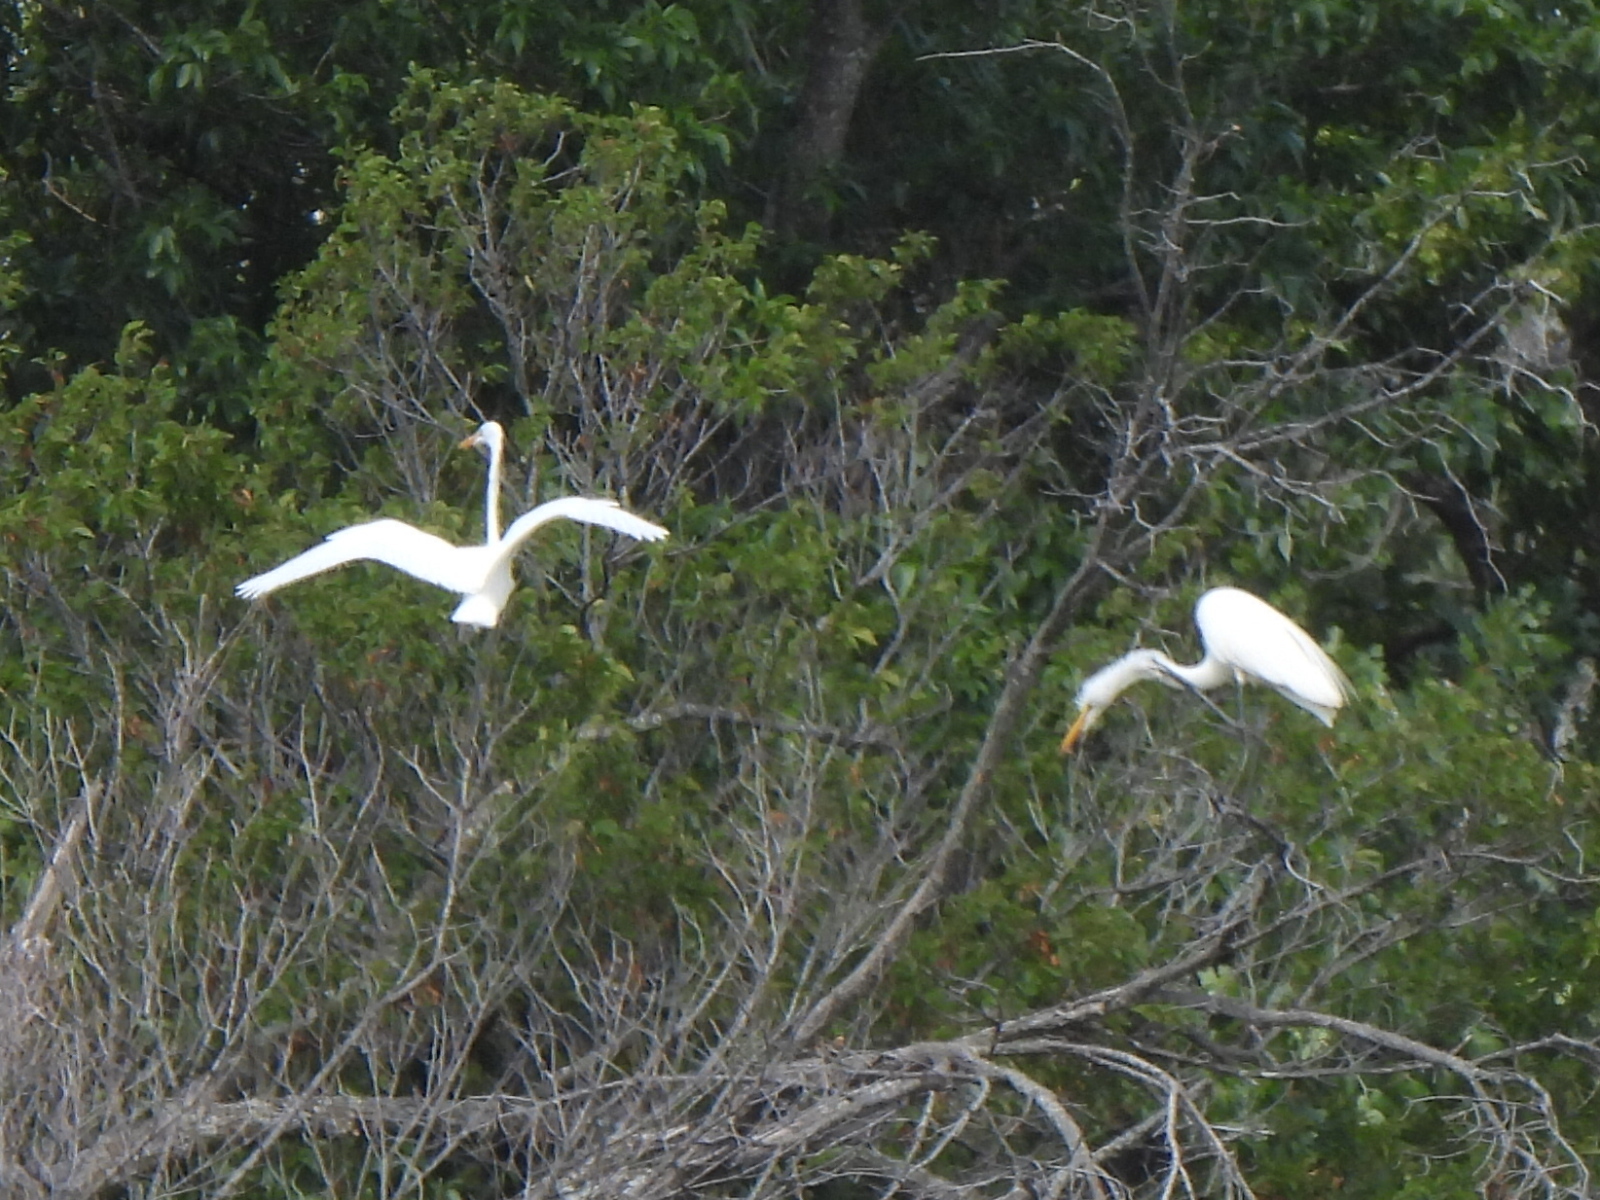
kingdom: Animalia
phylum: Chordata
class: Aves
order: Pelecaniformes
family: Ardeidae
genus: Ardea
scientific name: Ardea alba
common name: Great egret
